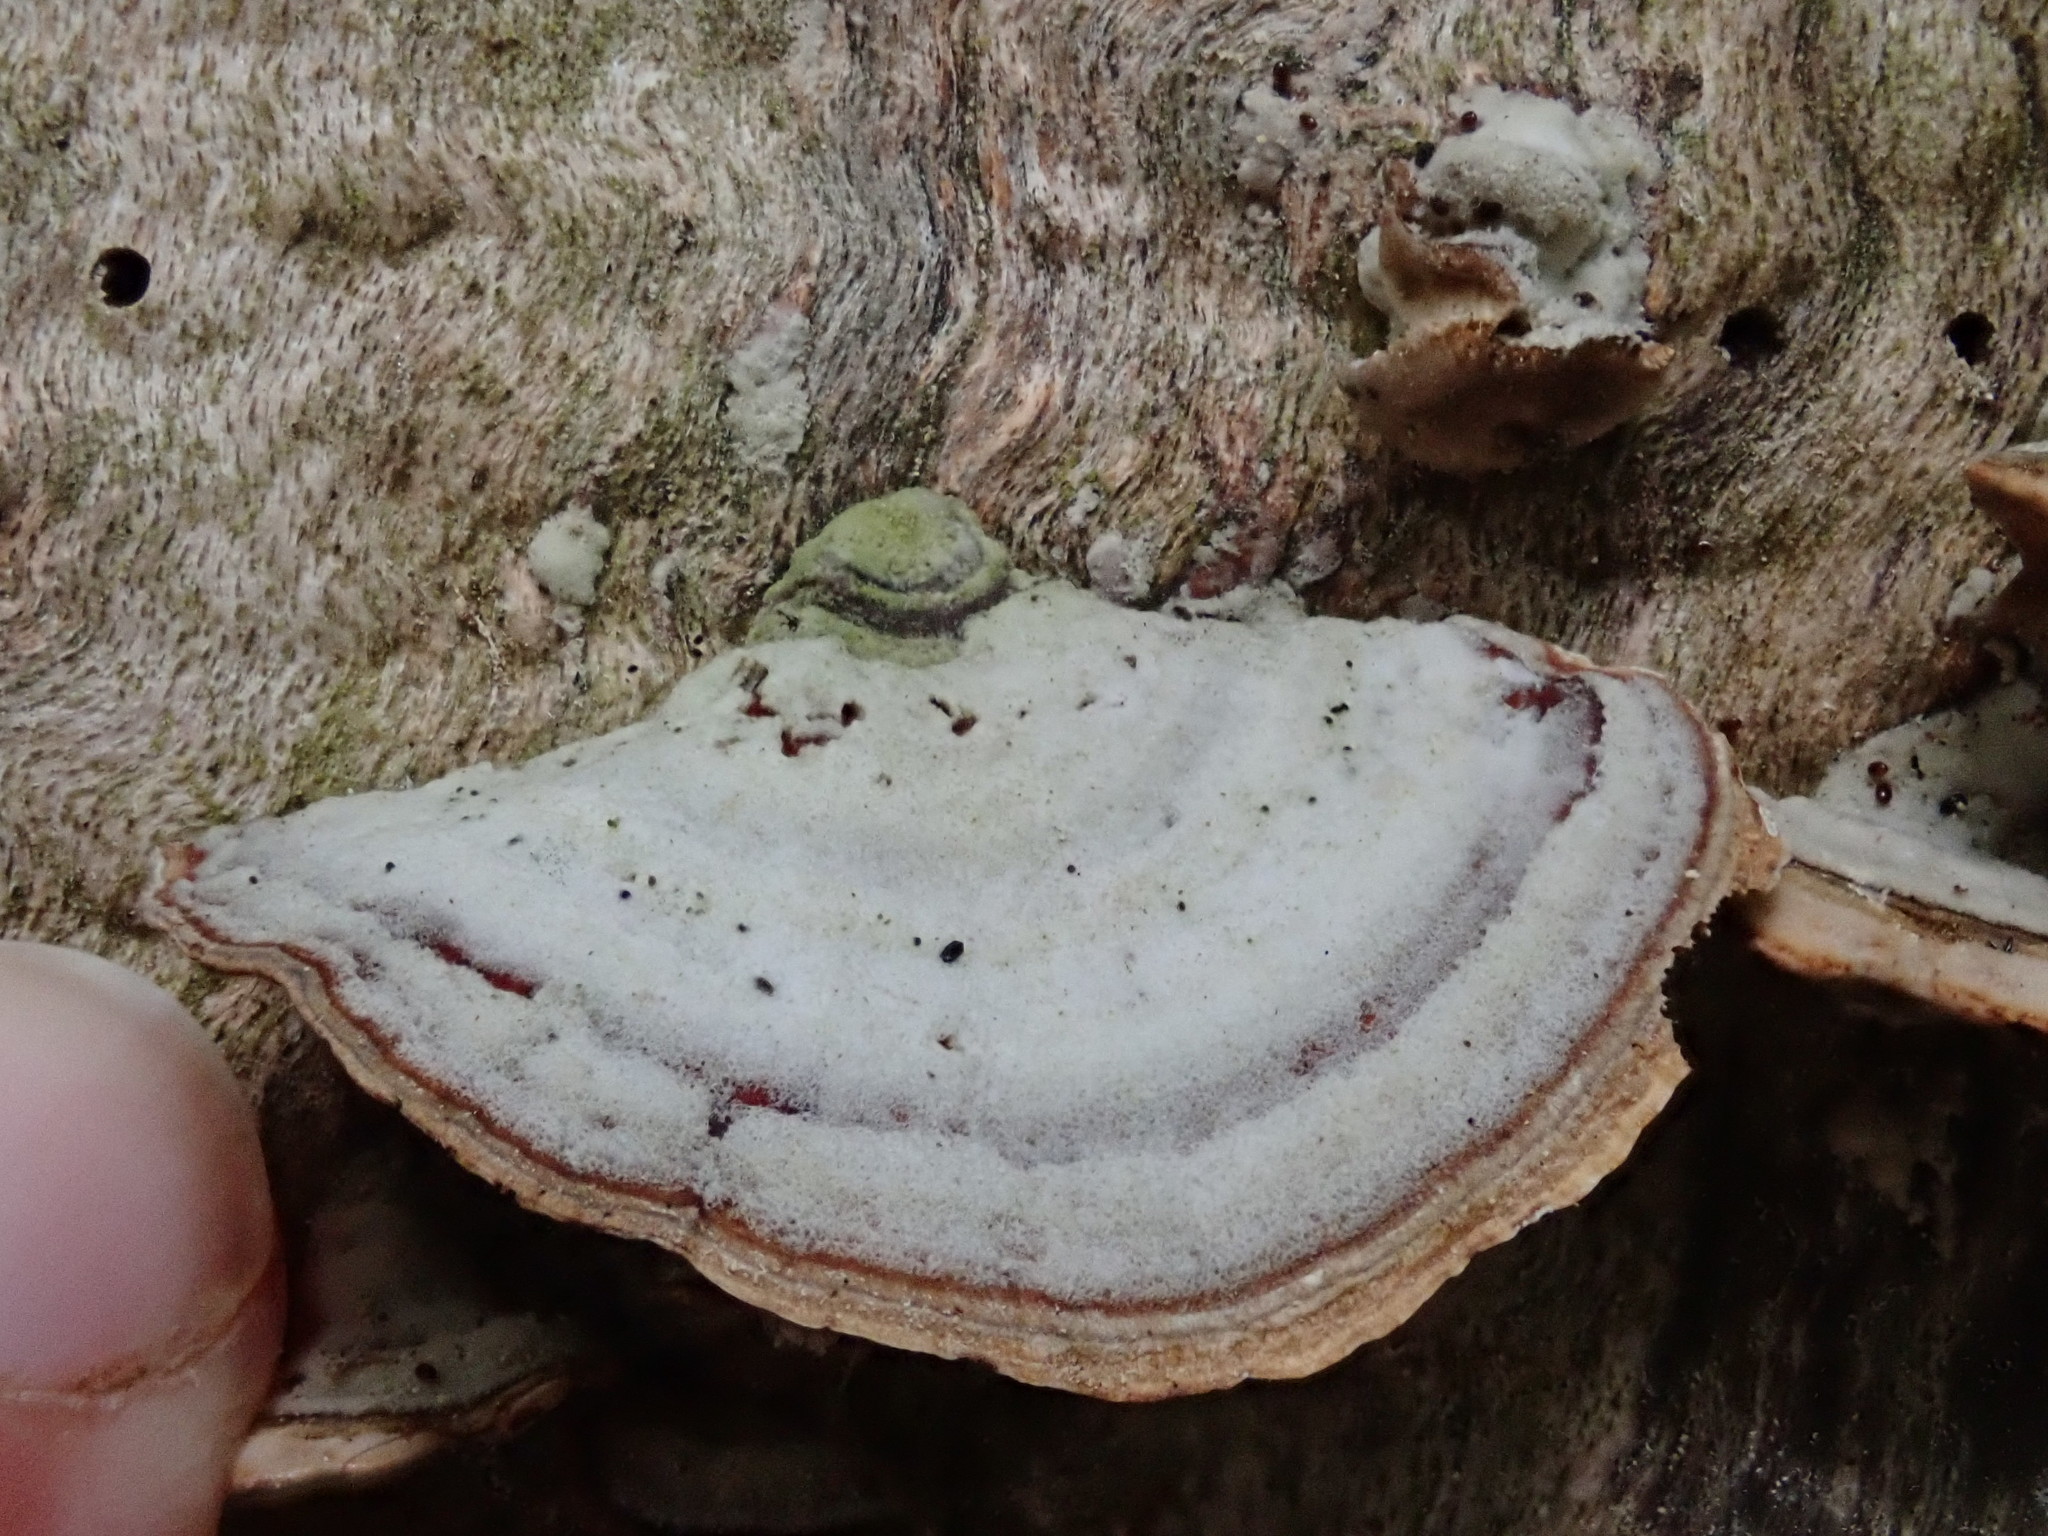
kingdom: Fungi
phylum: Basidiomycota
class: Agaricomycetes
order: Russulales
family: Stereaceae
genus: Stereum
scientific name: Stereum lobatum
